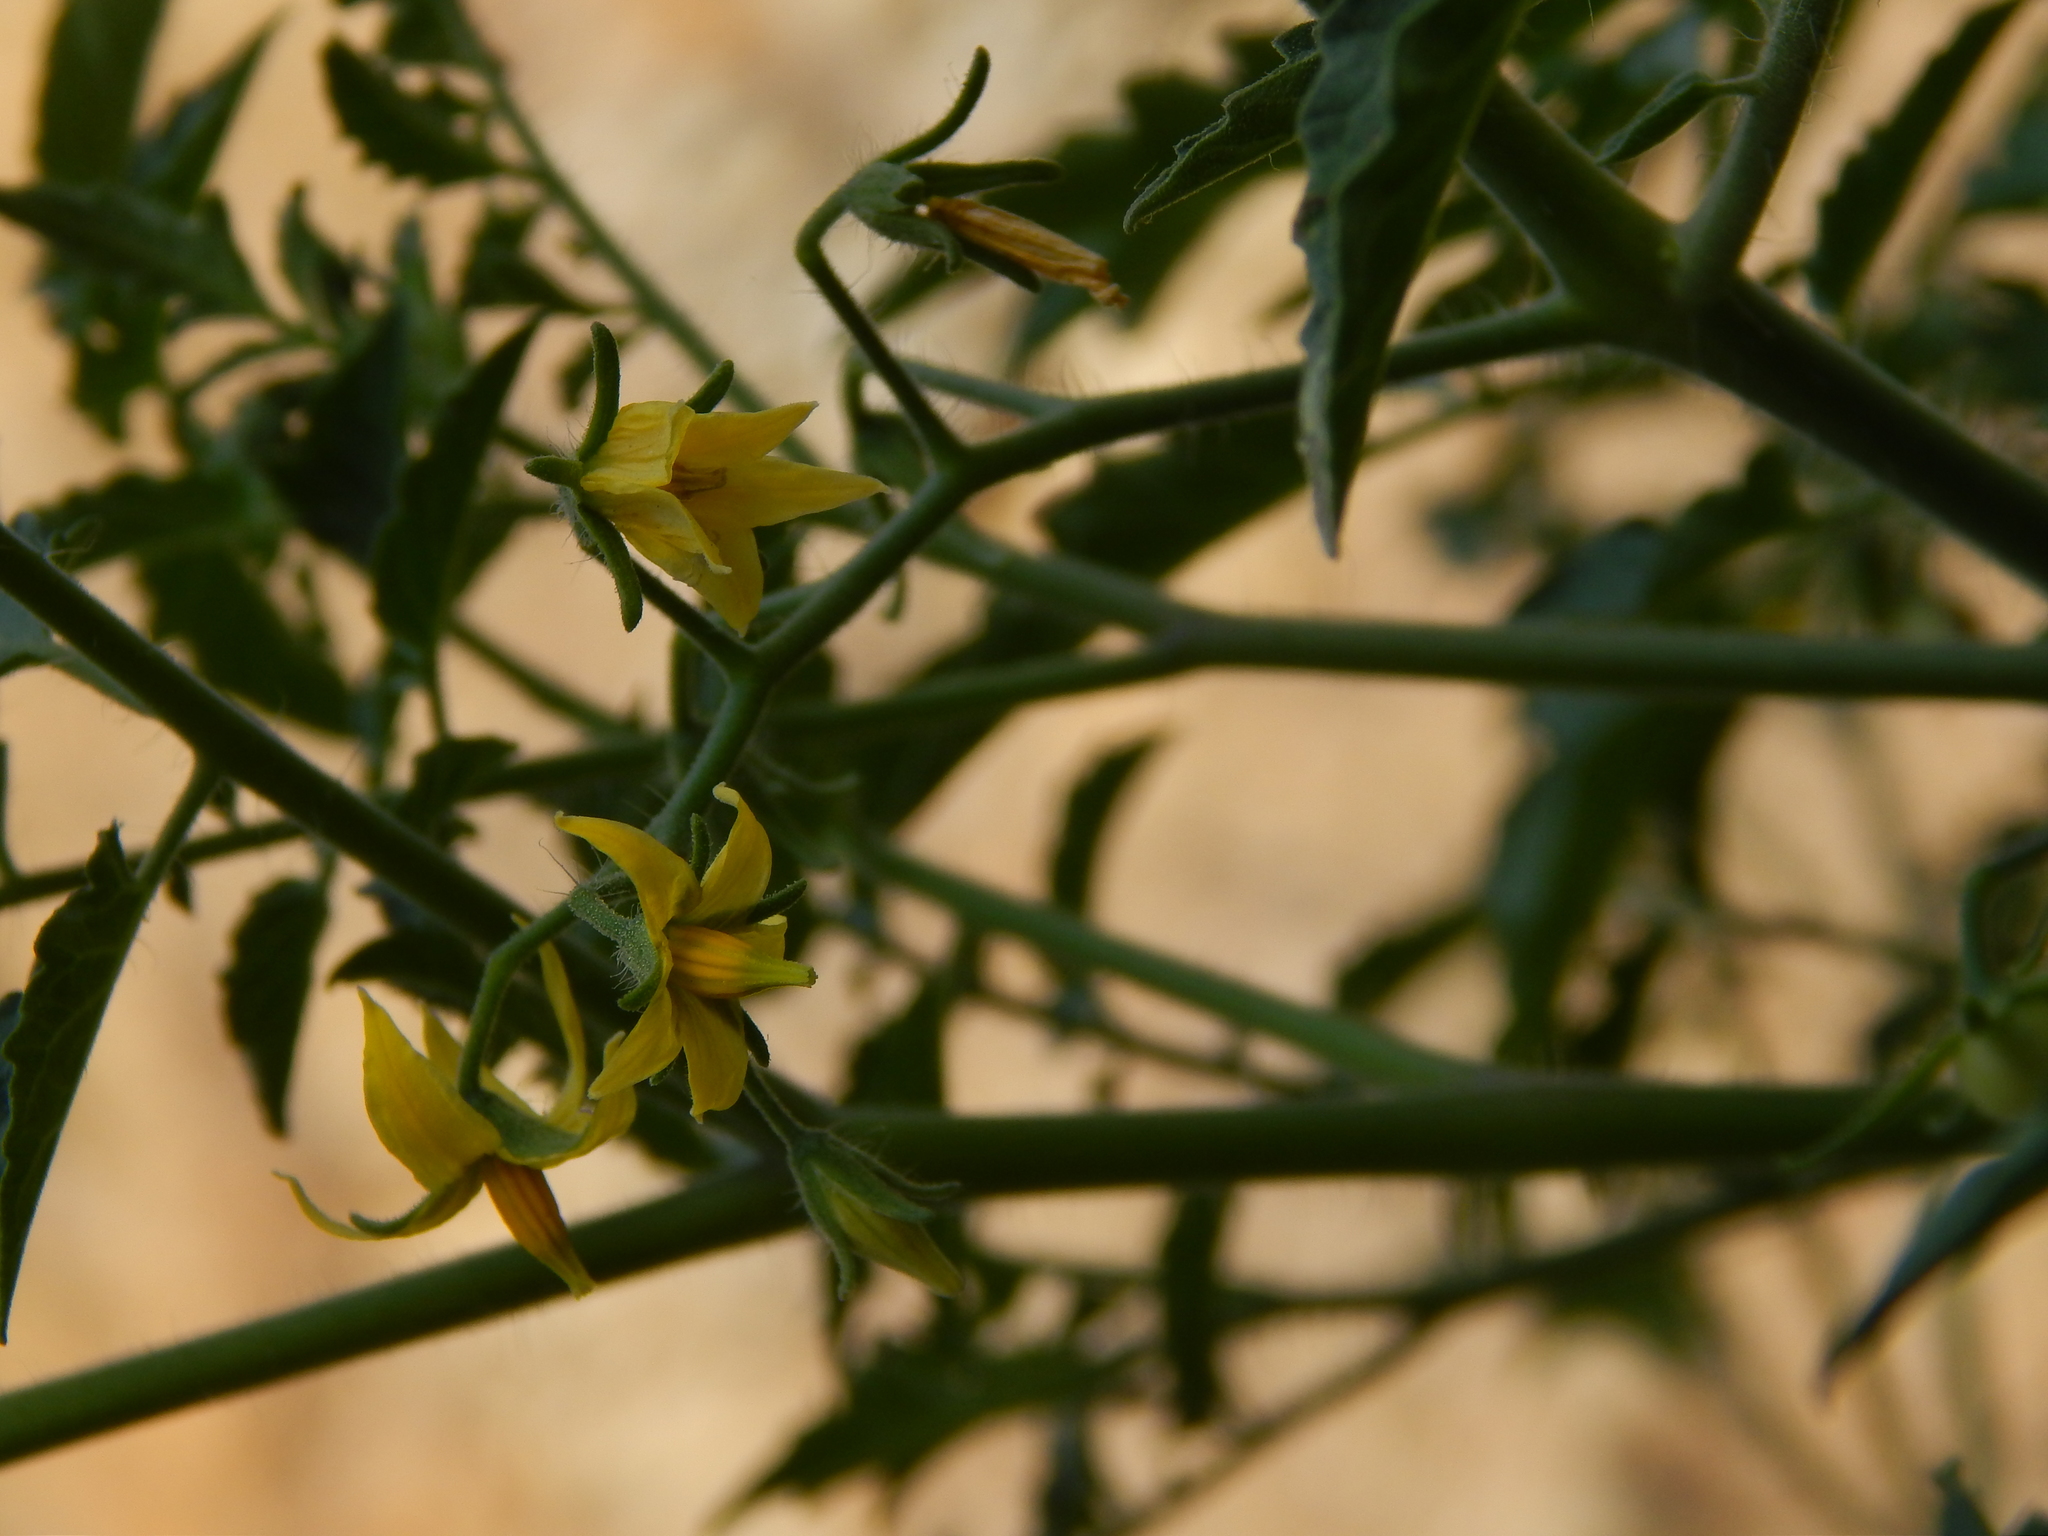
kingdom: Plantae
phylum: Tracheophyta
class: Magnoliopsida
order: Solanales
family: Solanaceae
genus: Solanum
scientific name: Solanum lycopersicum
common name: Garden tomato
